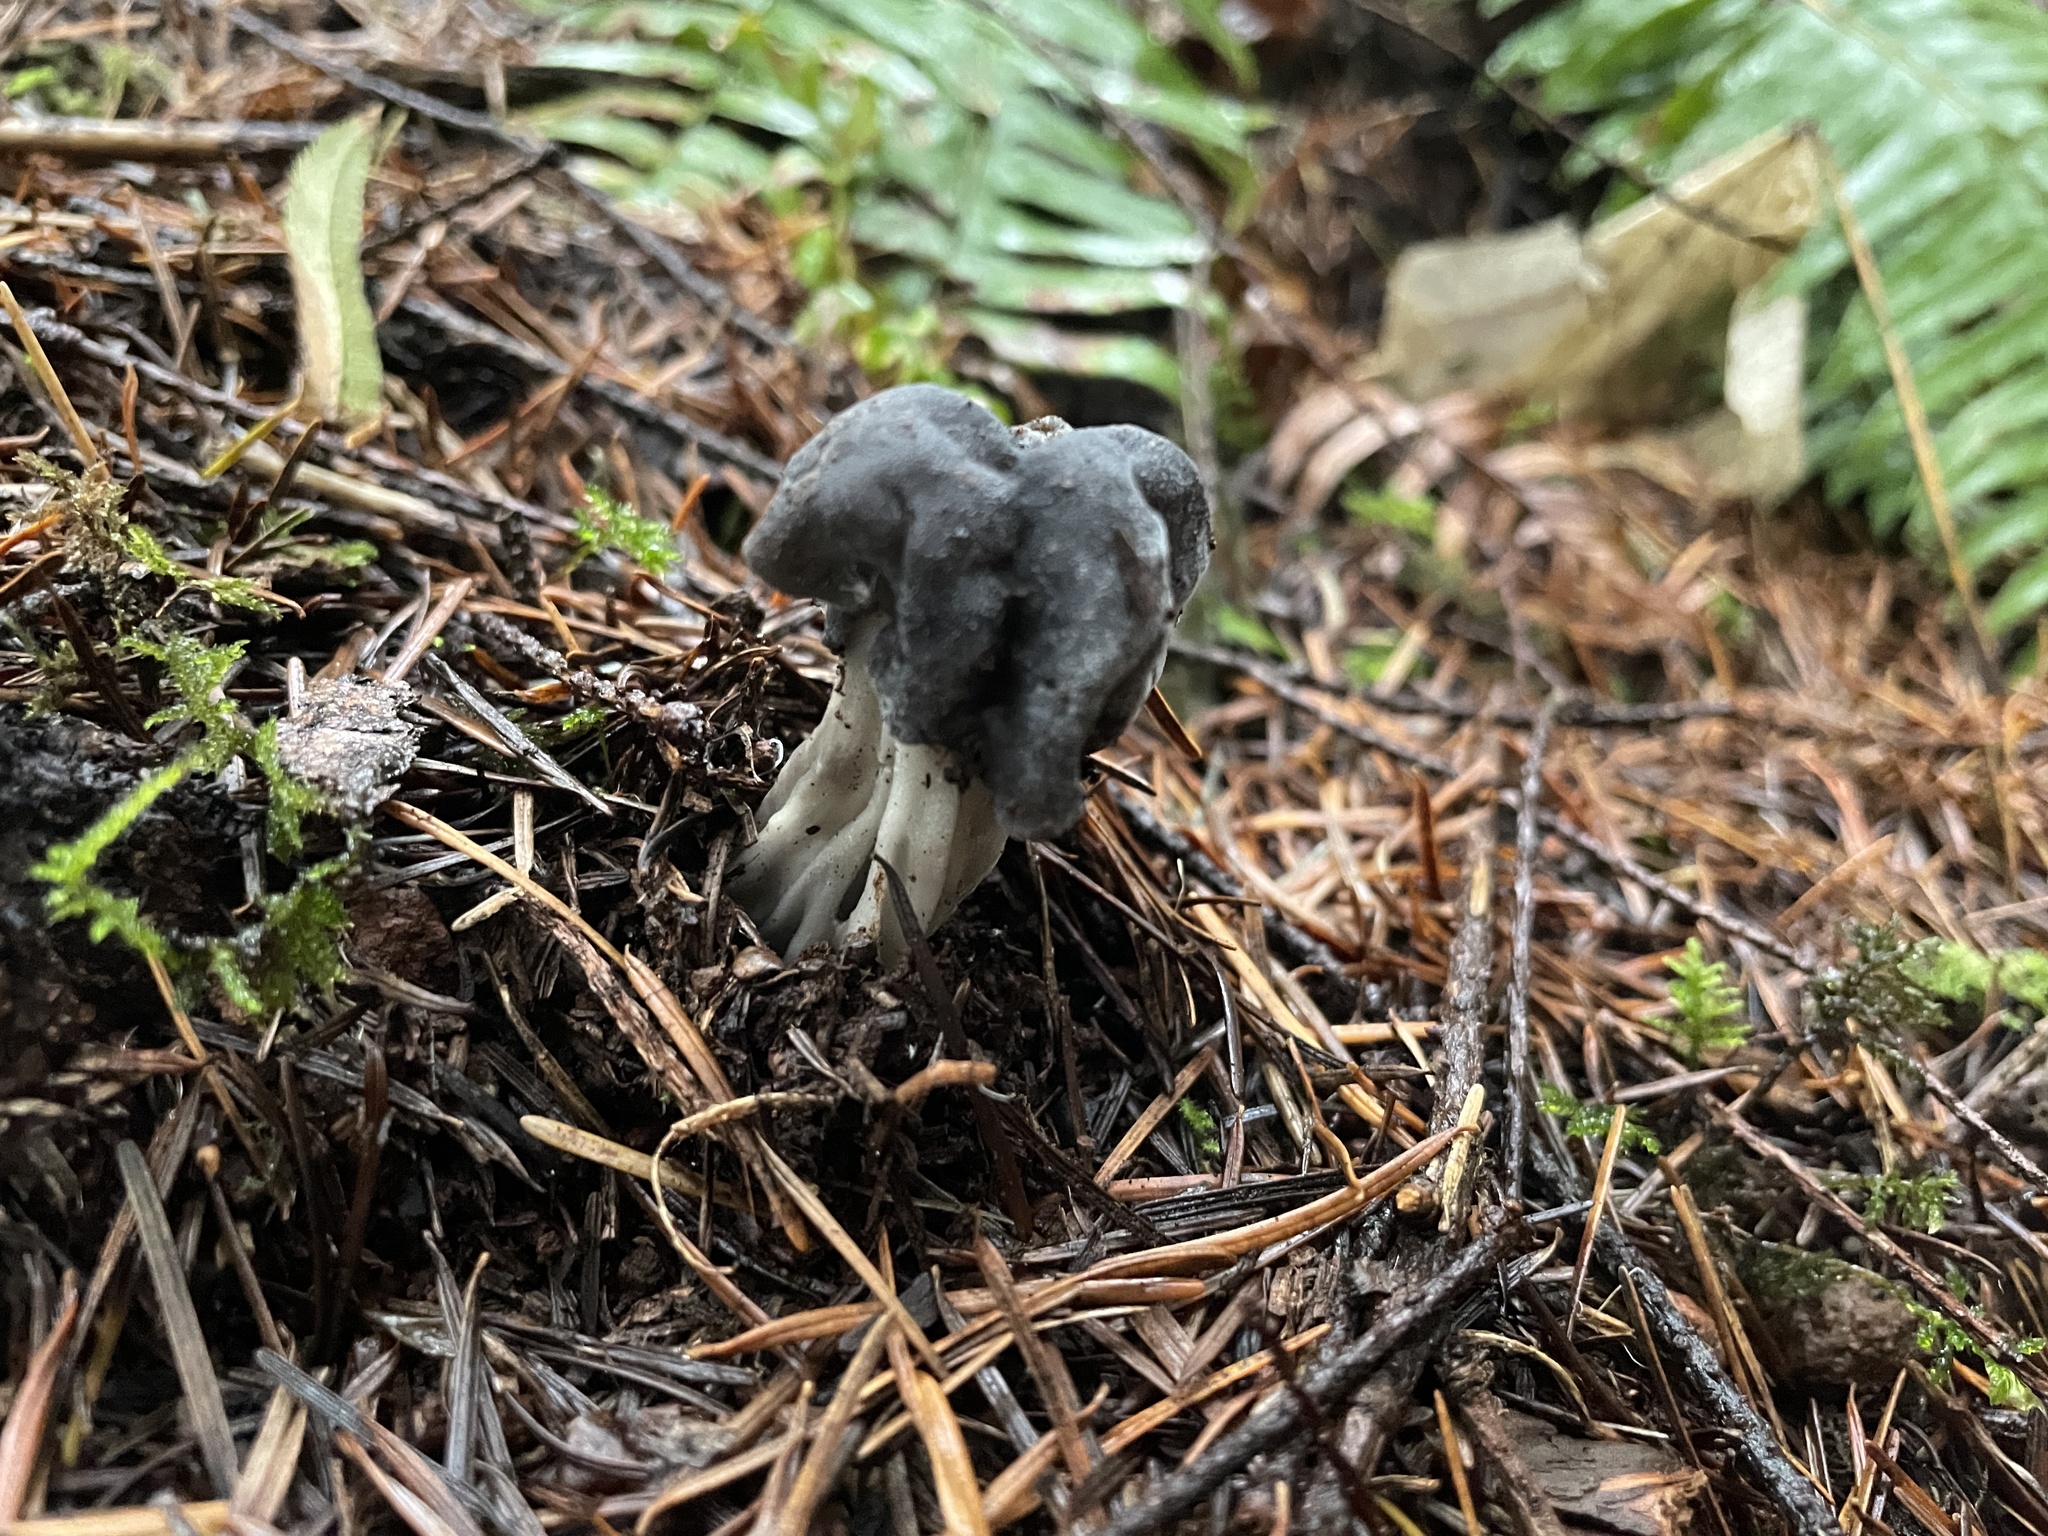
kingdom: Fungi
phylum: Ascomycota
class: Pezizomycetes
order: Pezizales
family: Helvellaceae
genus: Helvella
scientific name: Helvella vespertina
